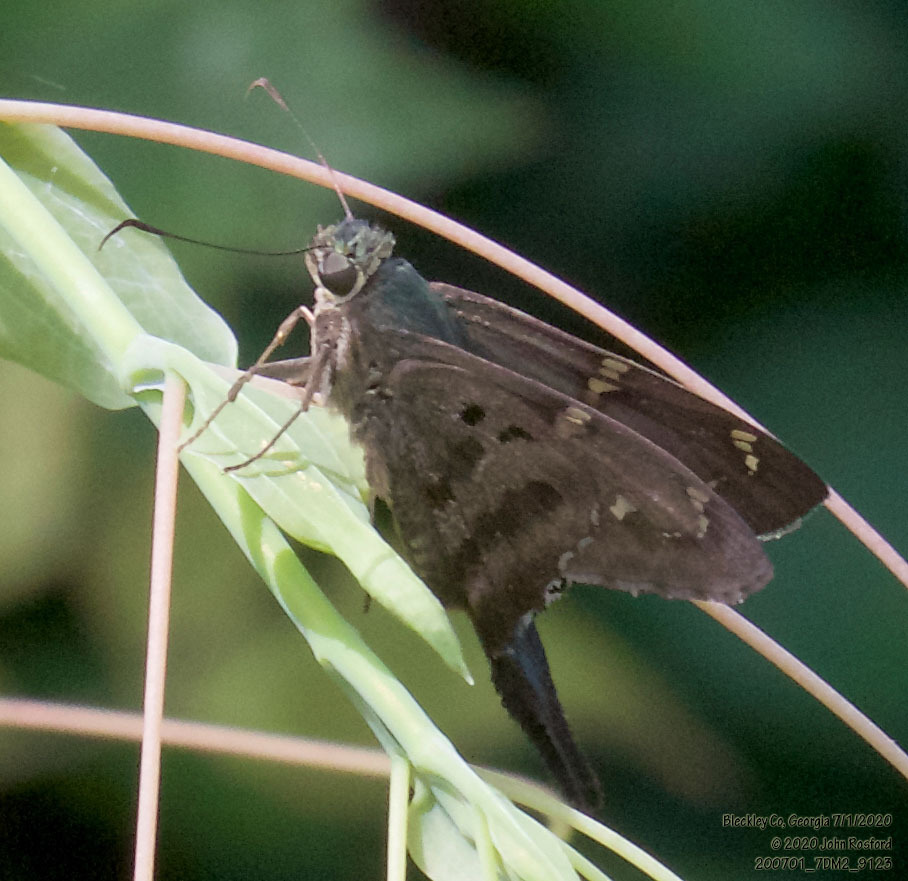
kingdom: Animalia
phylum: Arthropoda
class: Insecta
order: Lepidoptera
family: Hesperiidae
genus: Urbanus
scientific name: Urbanus proteus
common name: Long-tailed skipper
